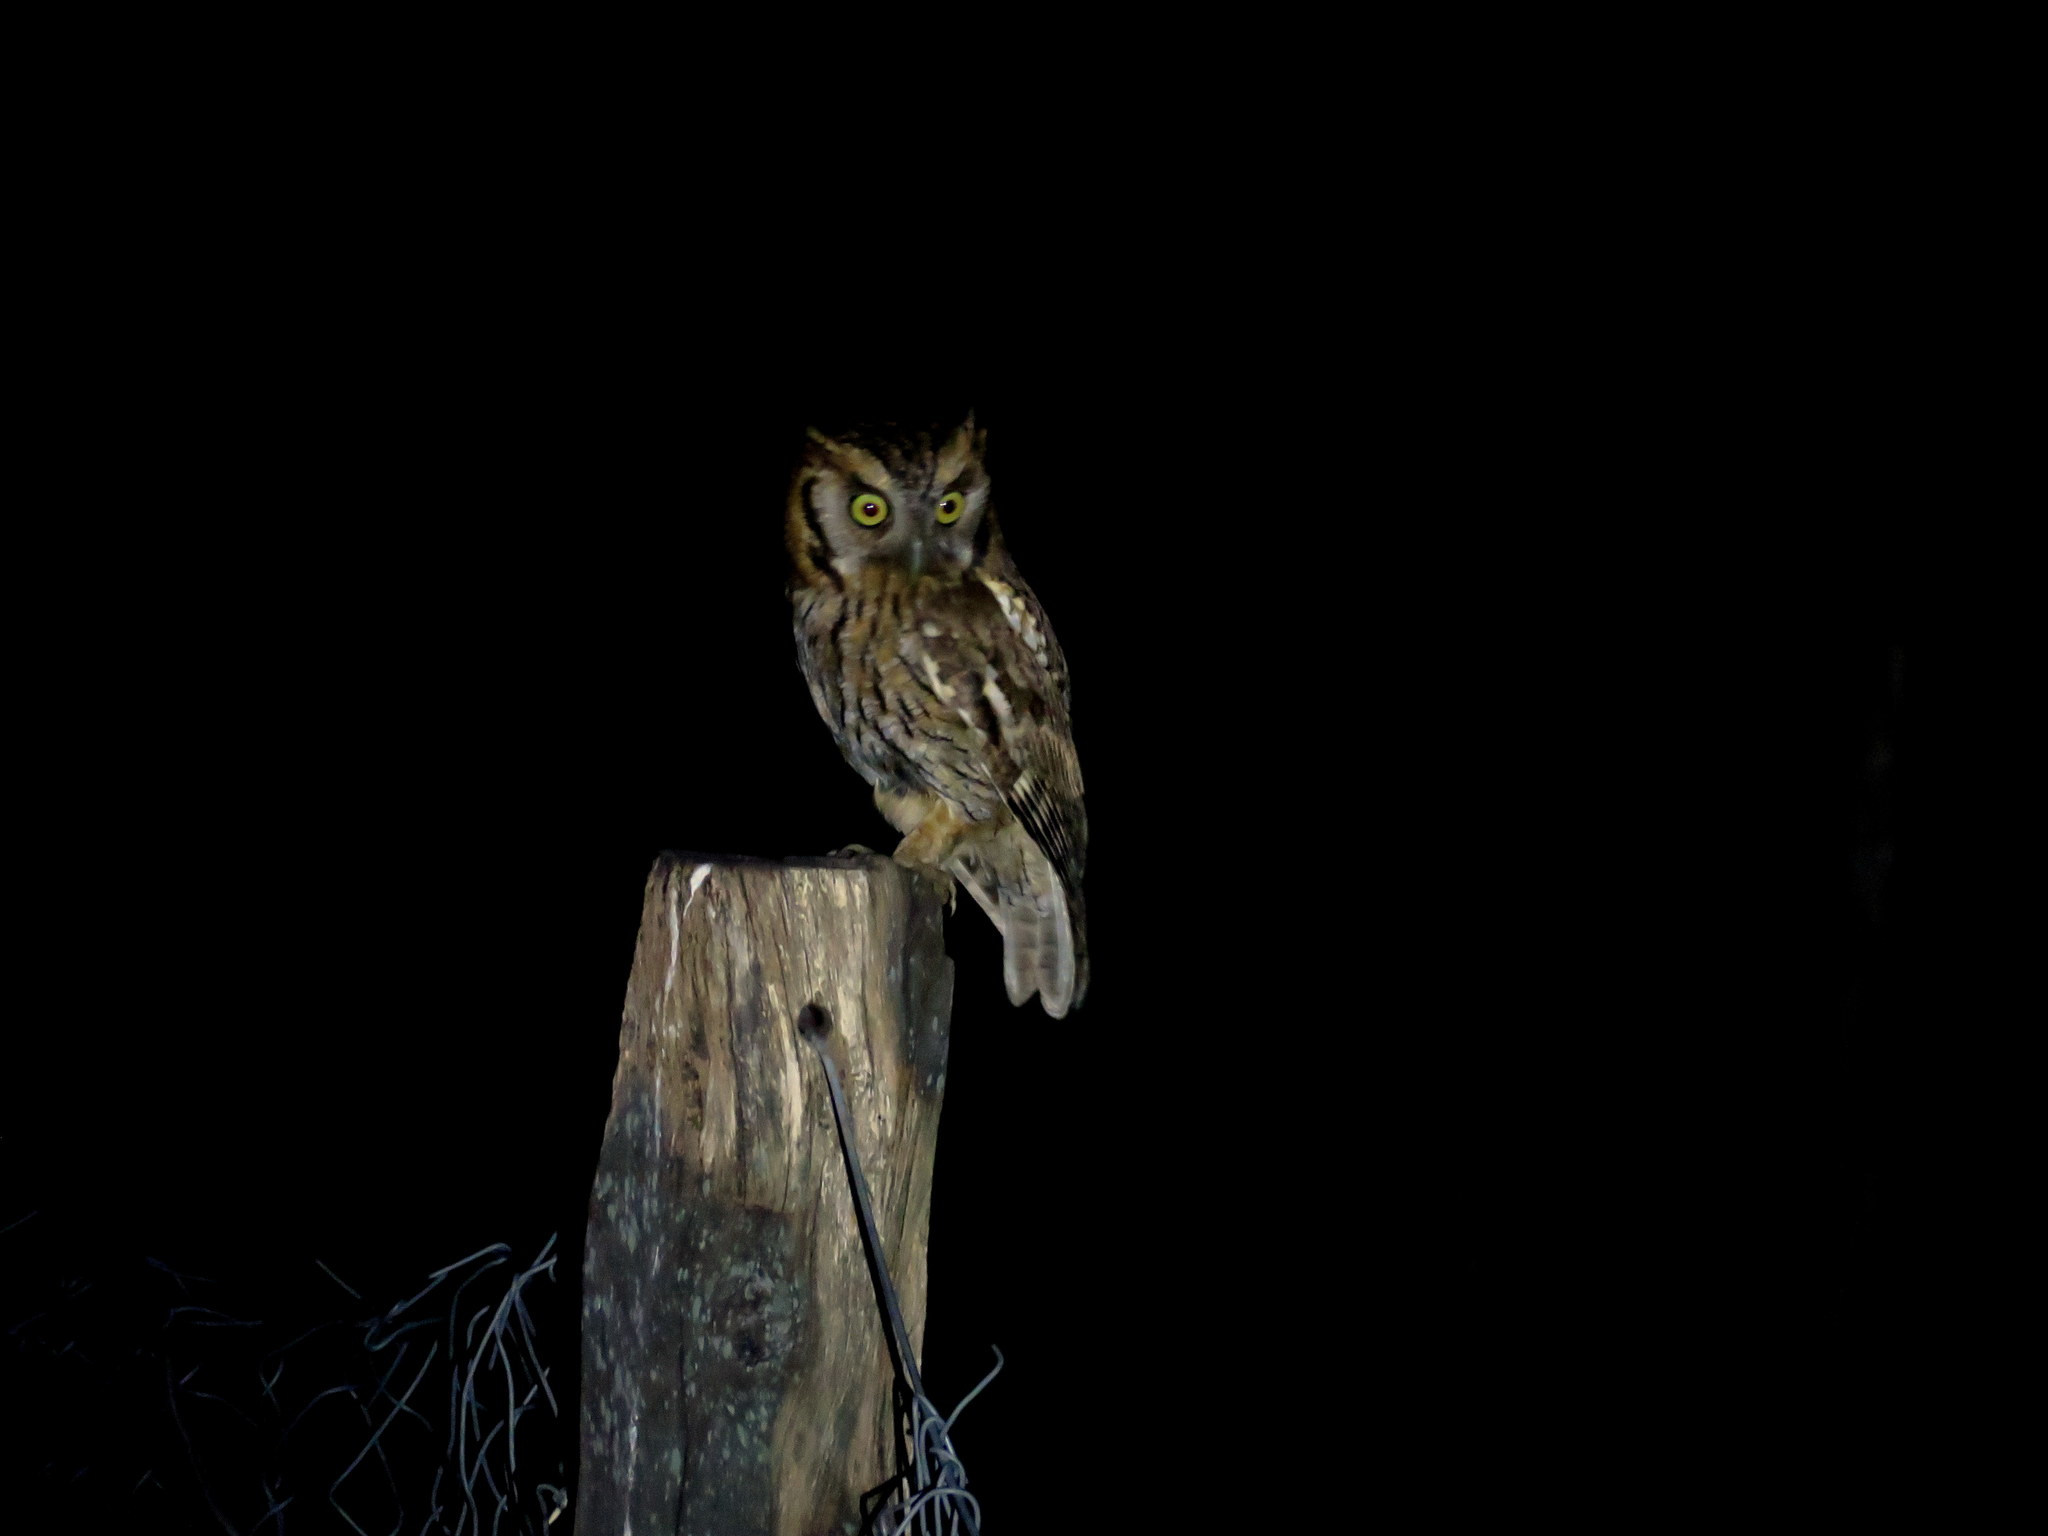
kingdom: Animalia
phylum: Chordata
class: Aves
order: Strigiformes
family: Strigidae
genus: Megascops
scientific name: Megascops choliba
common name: Tropical screech-owl
